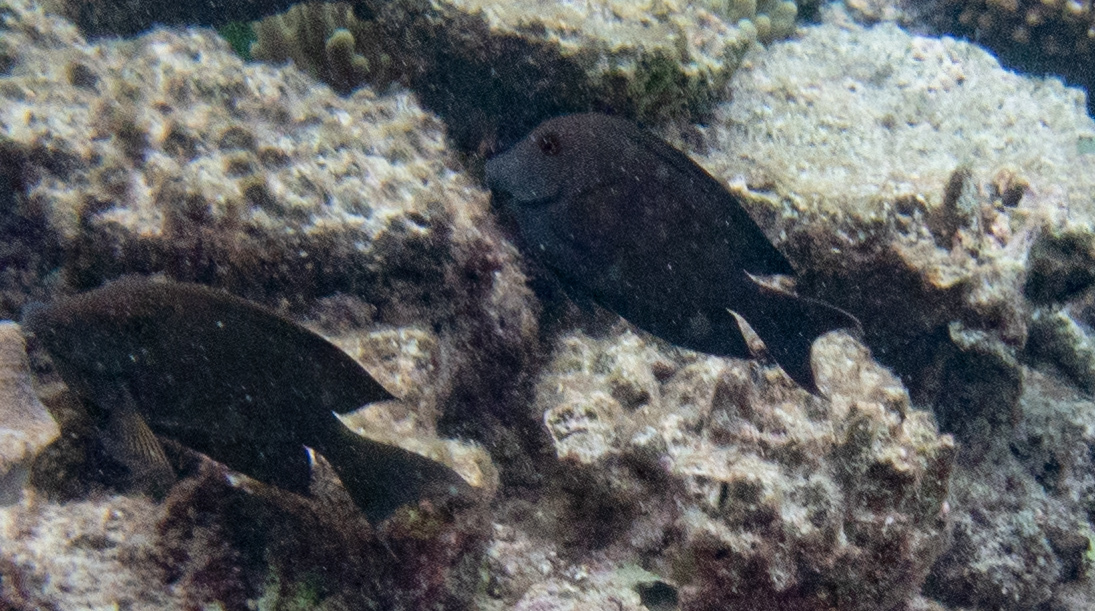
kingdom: Animalia
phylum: Chordata
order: Perciformes
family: Acanthuridae
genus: Ctenochaetus
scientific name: Ctenochaetus striatus
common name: Bristle-toothed surgeonfish
